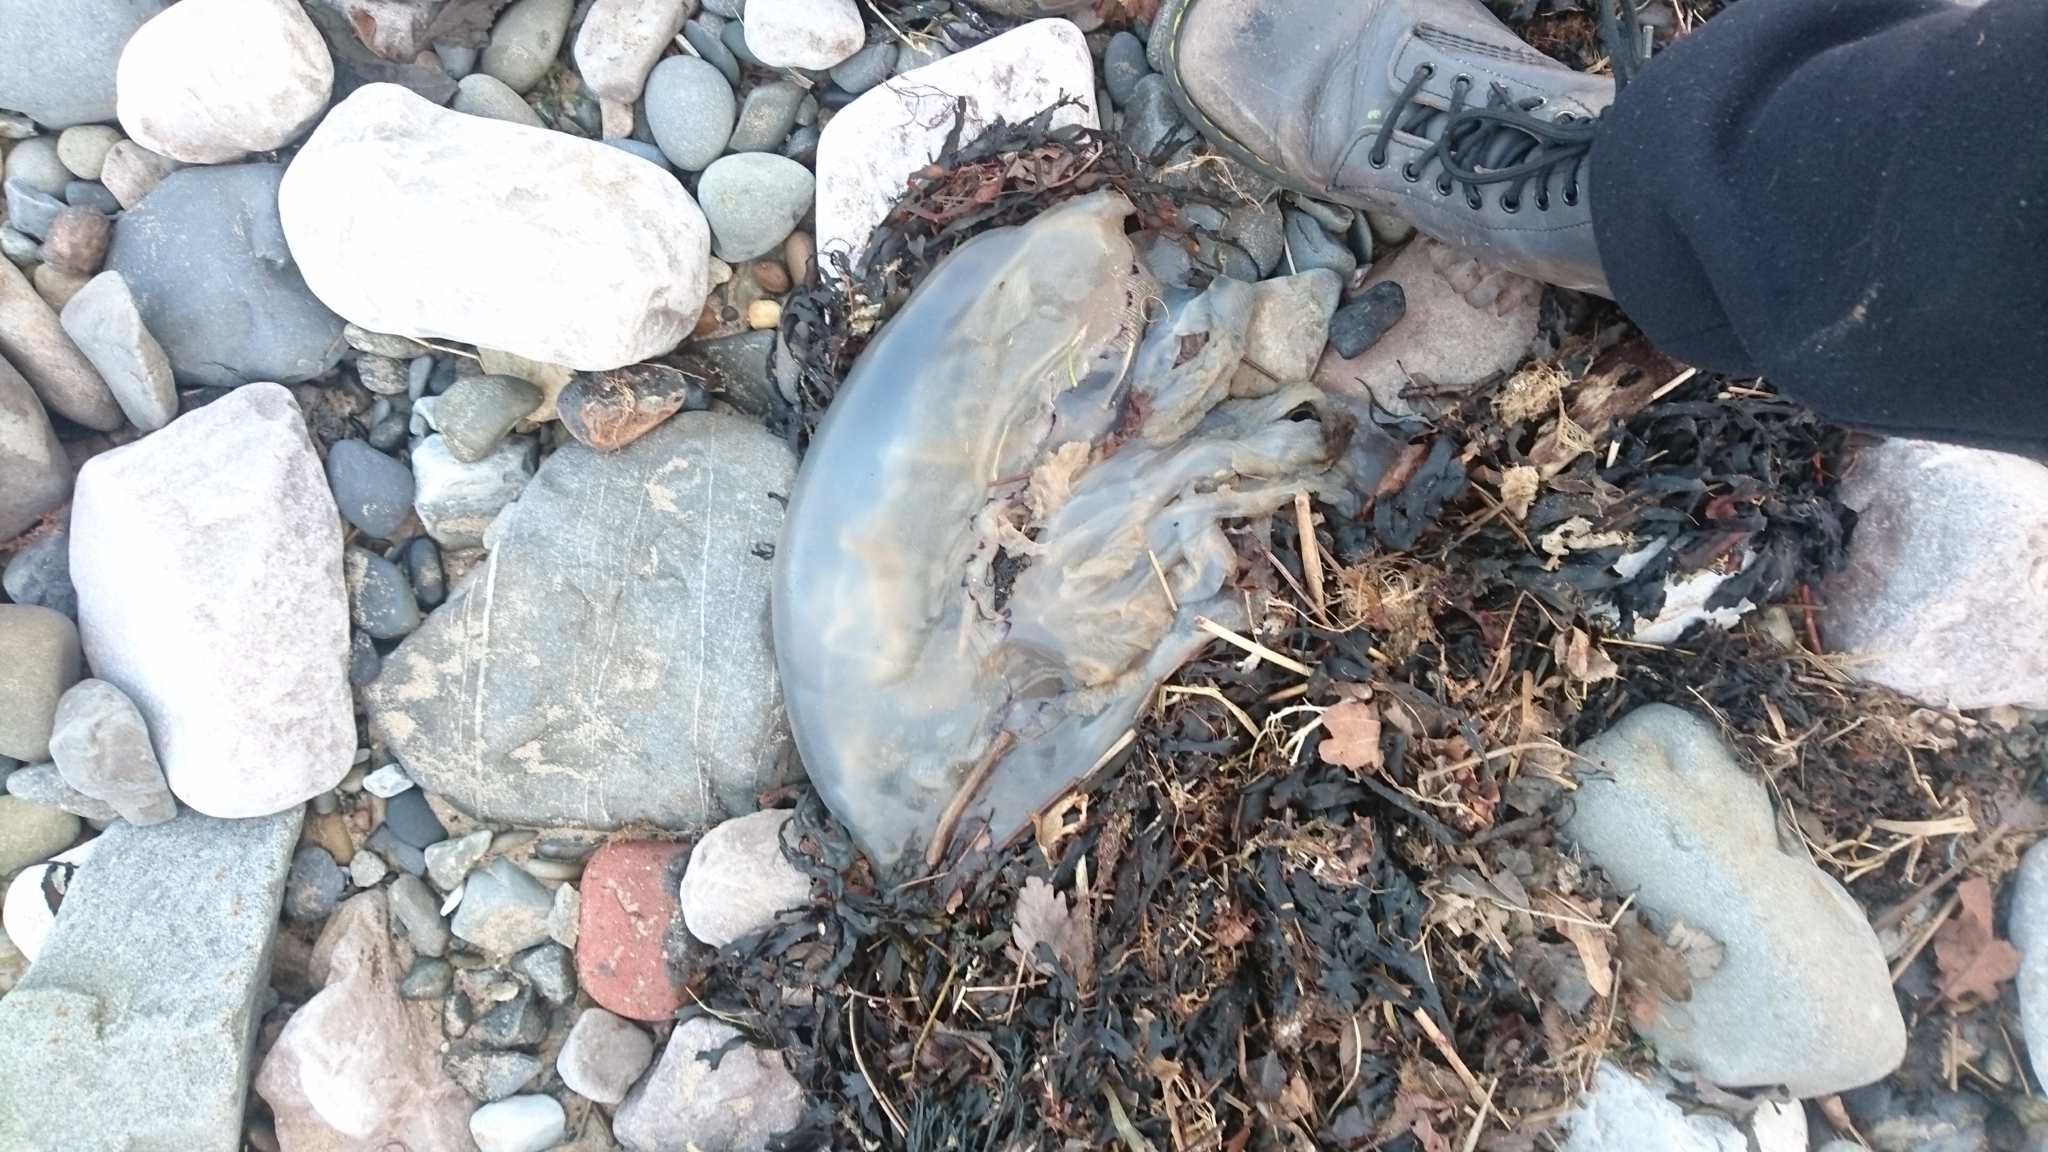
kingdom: Animalia
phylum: Cnidaria
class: Scyphozoa
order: Rhizostomeae
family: Rhizostomatidae
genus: Rhizostoma
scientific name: Rhizostoma octopus
